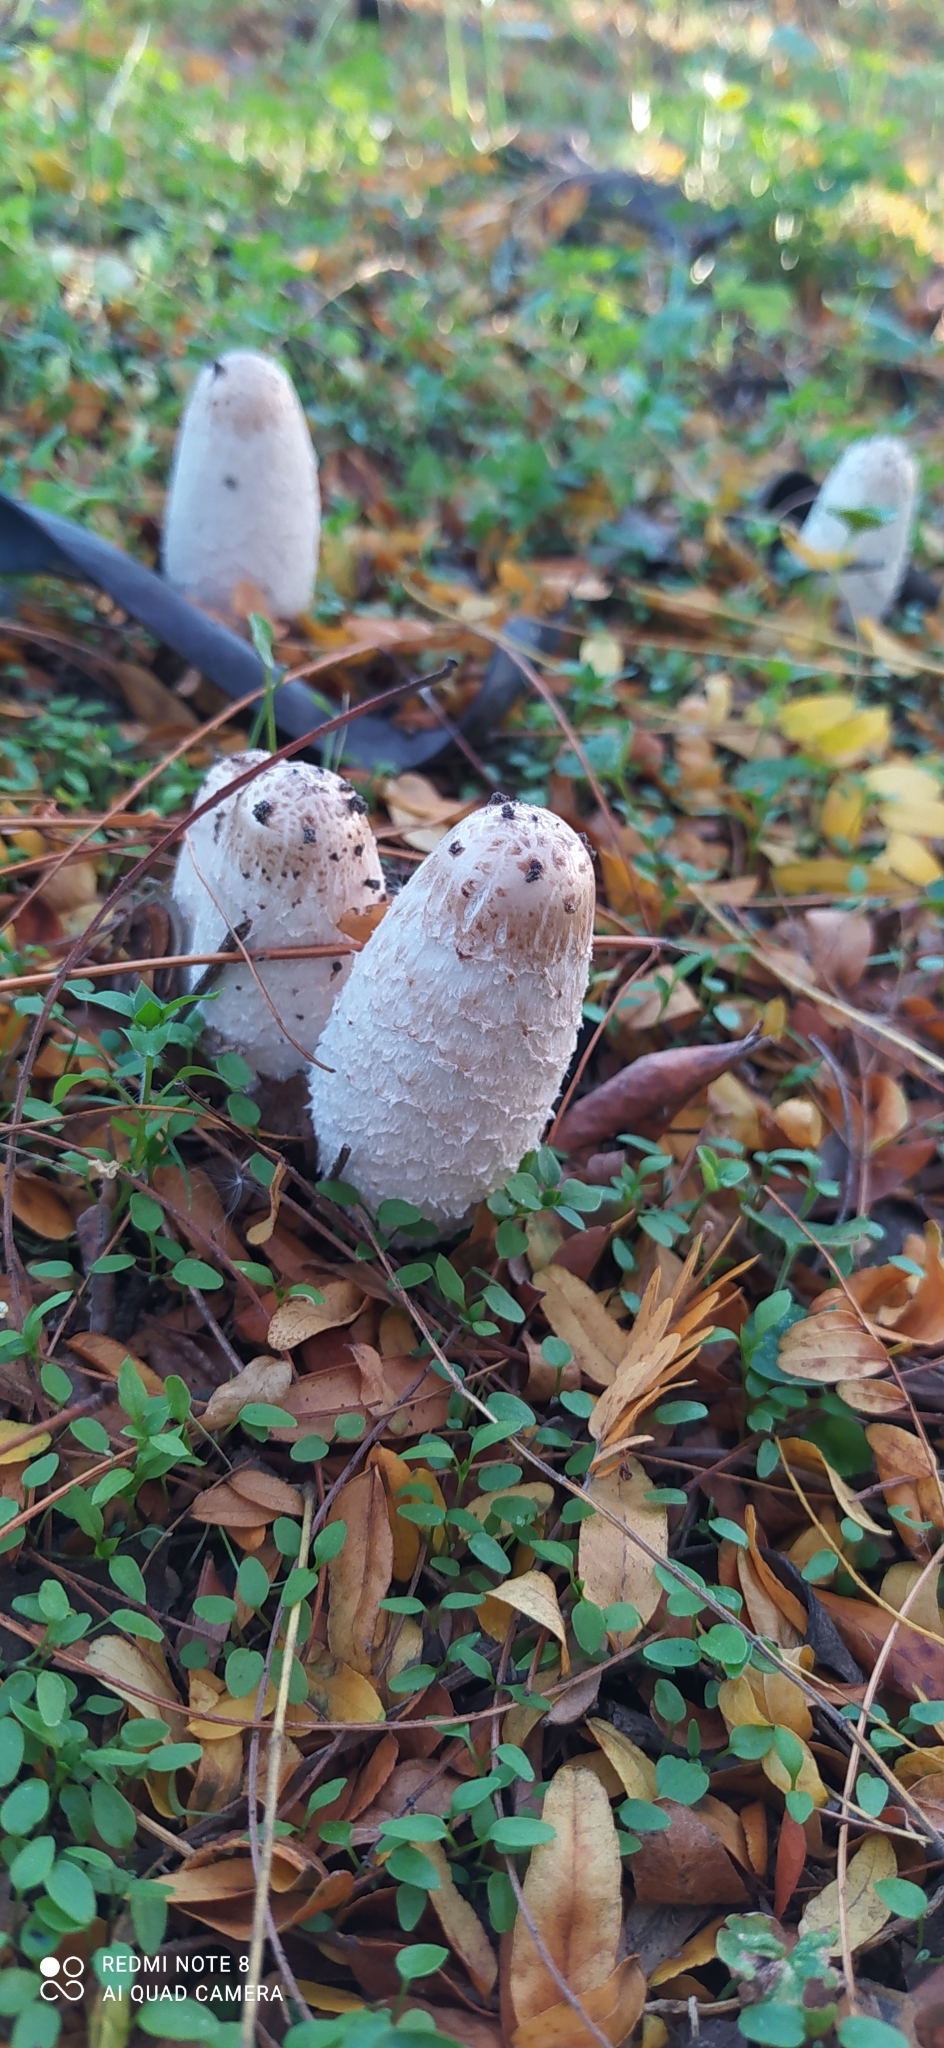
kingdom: Fungi
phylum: Basidiomycota
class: Agaricomycetes
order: Agaricales
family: Agaricaceae
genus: Coprinus
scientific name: Coprinus comatus
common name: Lawyer's wig
